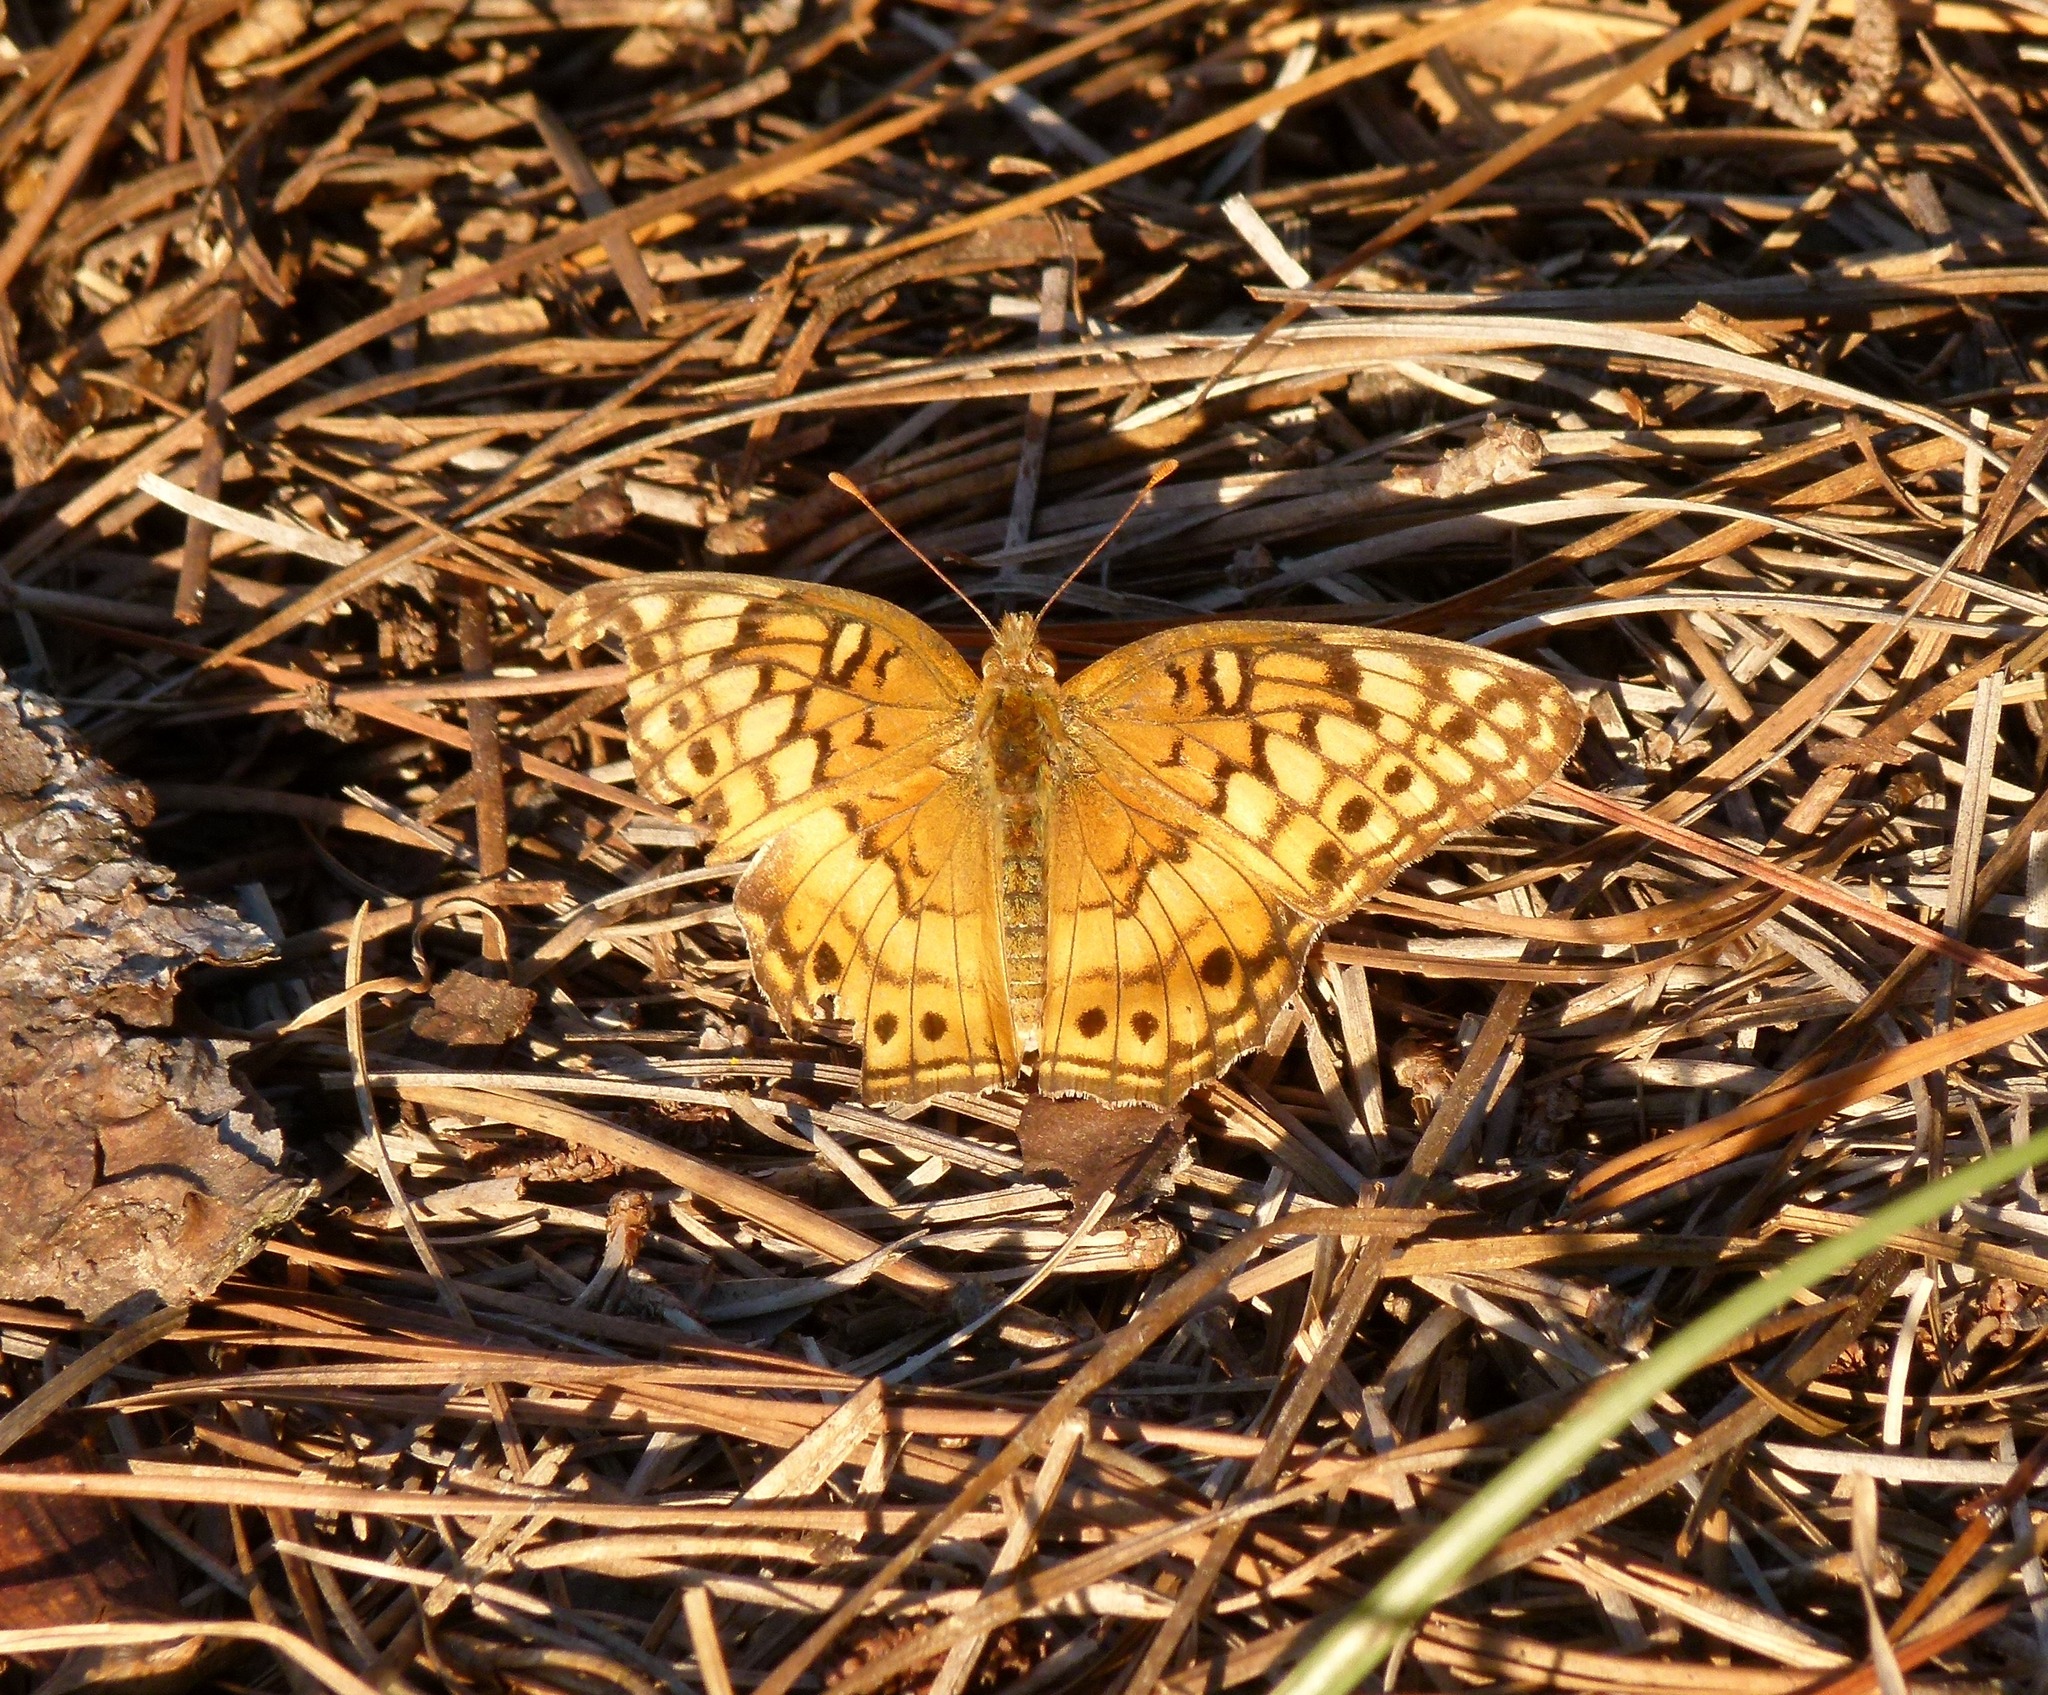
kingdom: Animalia
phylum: Arthropoda
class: Insecta
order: Lepidoptera
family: Nymphalidae
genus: Euptoieta
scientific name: Euptoieta claudia
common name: Variegated fritillary
